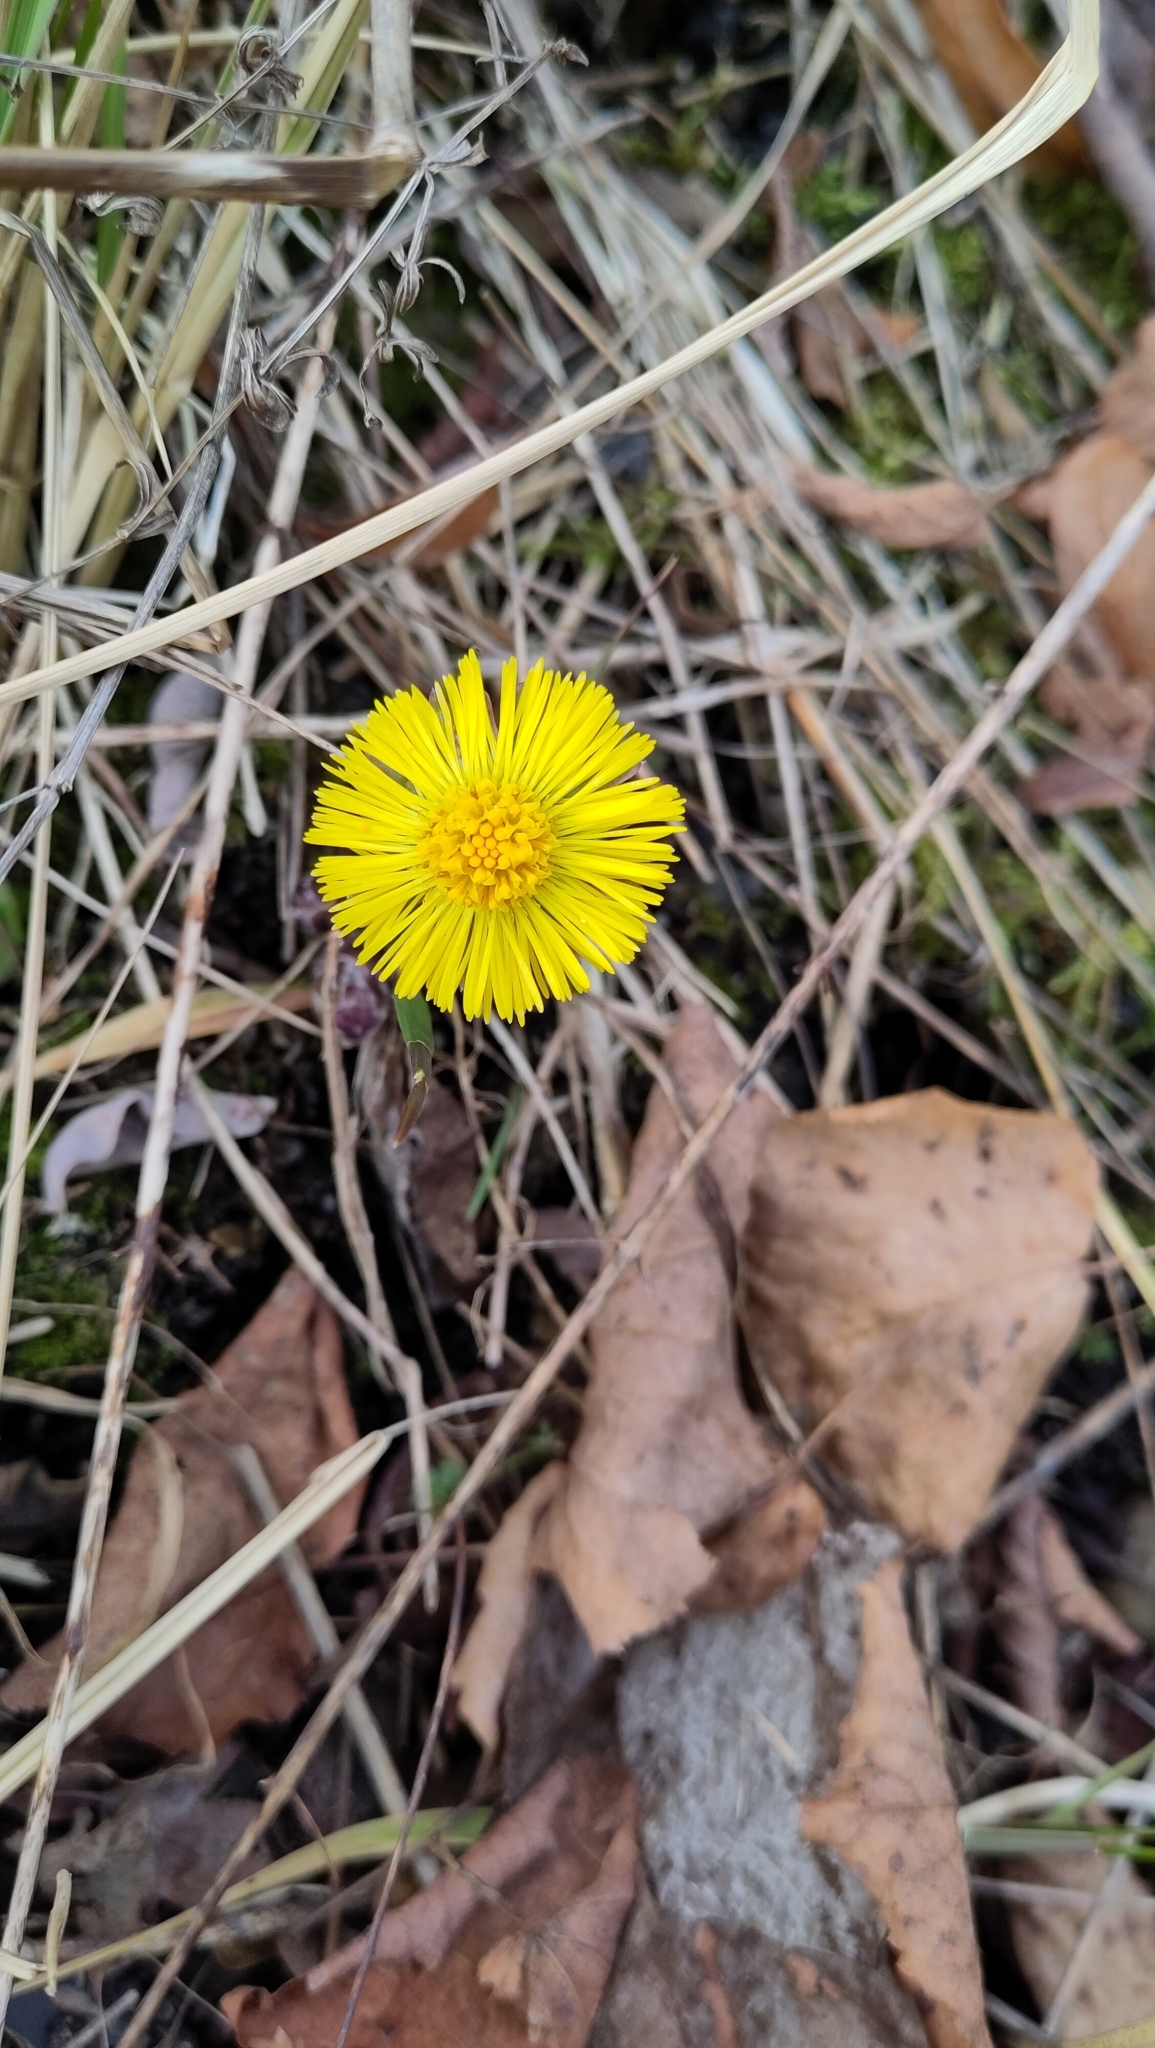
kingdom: Plantae
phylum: Tracheophyta
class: Magnoliopsida
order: Asterales
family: Asteraceae
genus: Tussilago
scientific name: Tussilago farfara
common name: Coltsfoot
